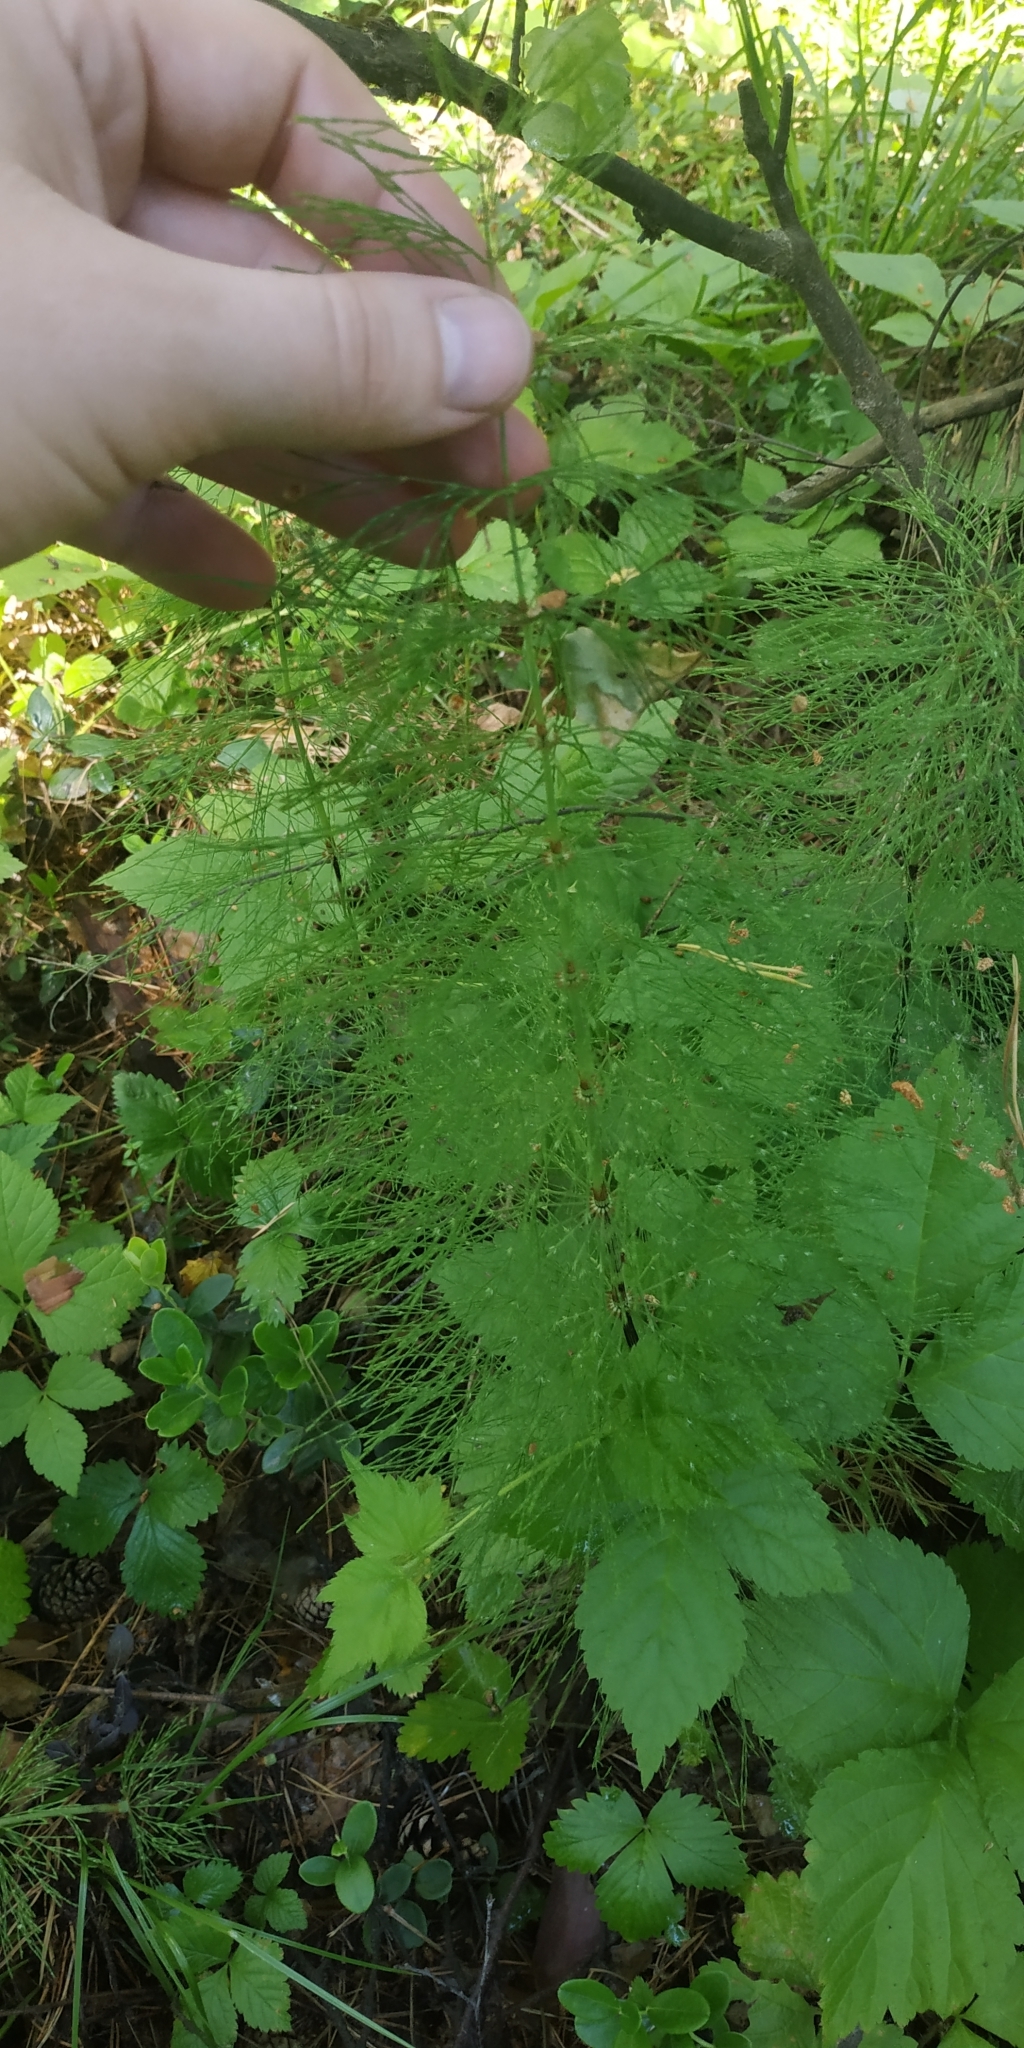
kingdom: Plantae
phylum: Tracheophyta
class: Polypodiopsida
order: Equisetales
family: Equisetaceae
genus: Equisetum
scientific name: Equisetum sylvaticum
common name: Wood horsetail
